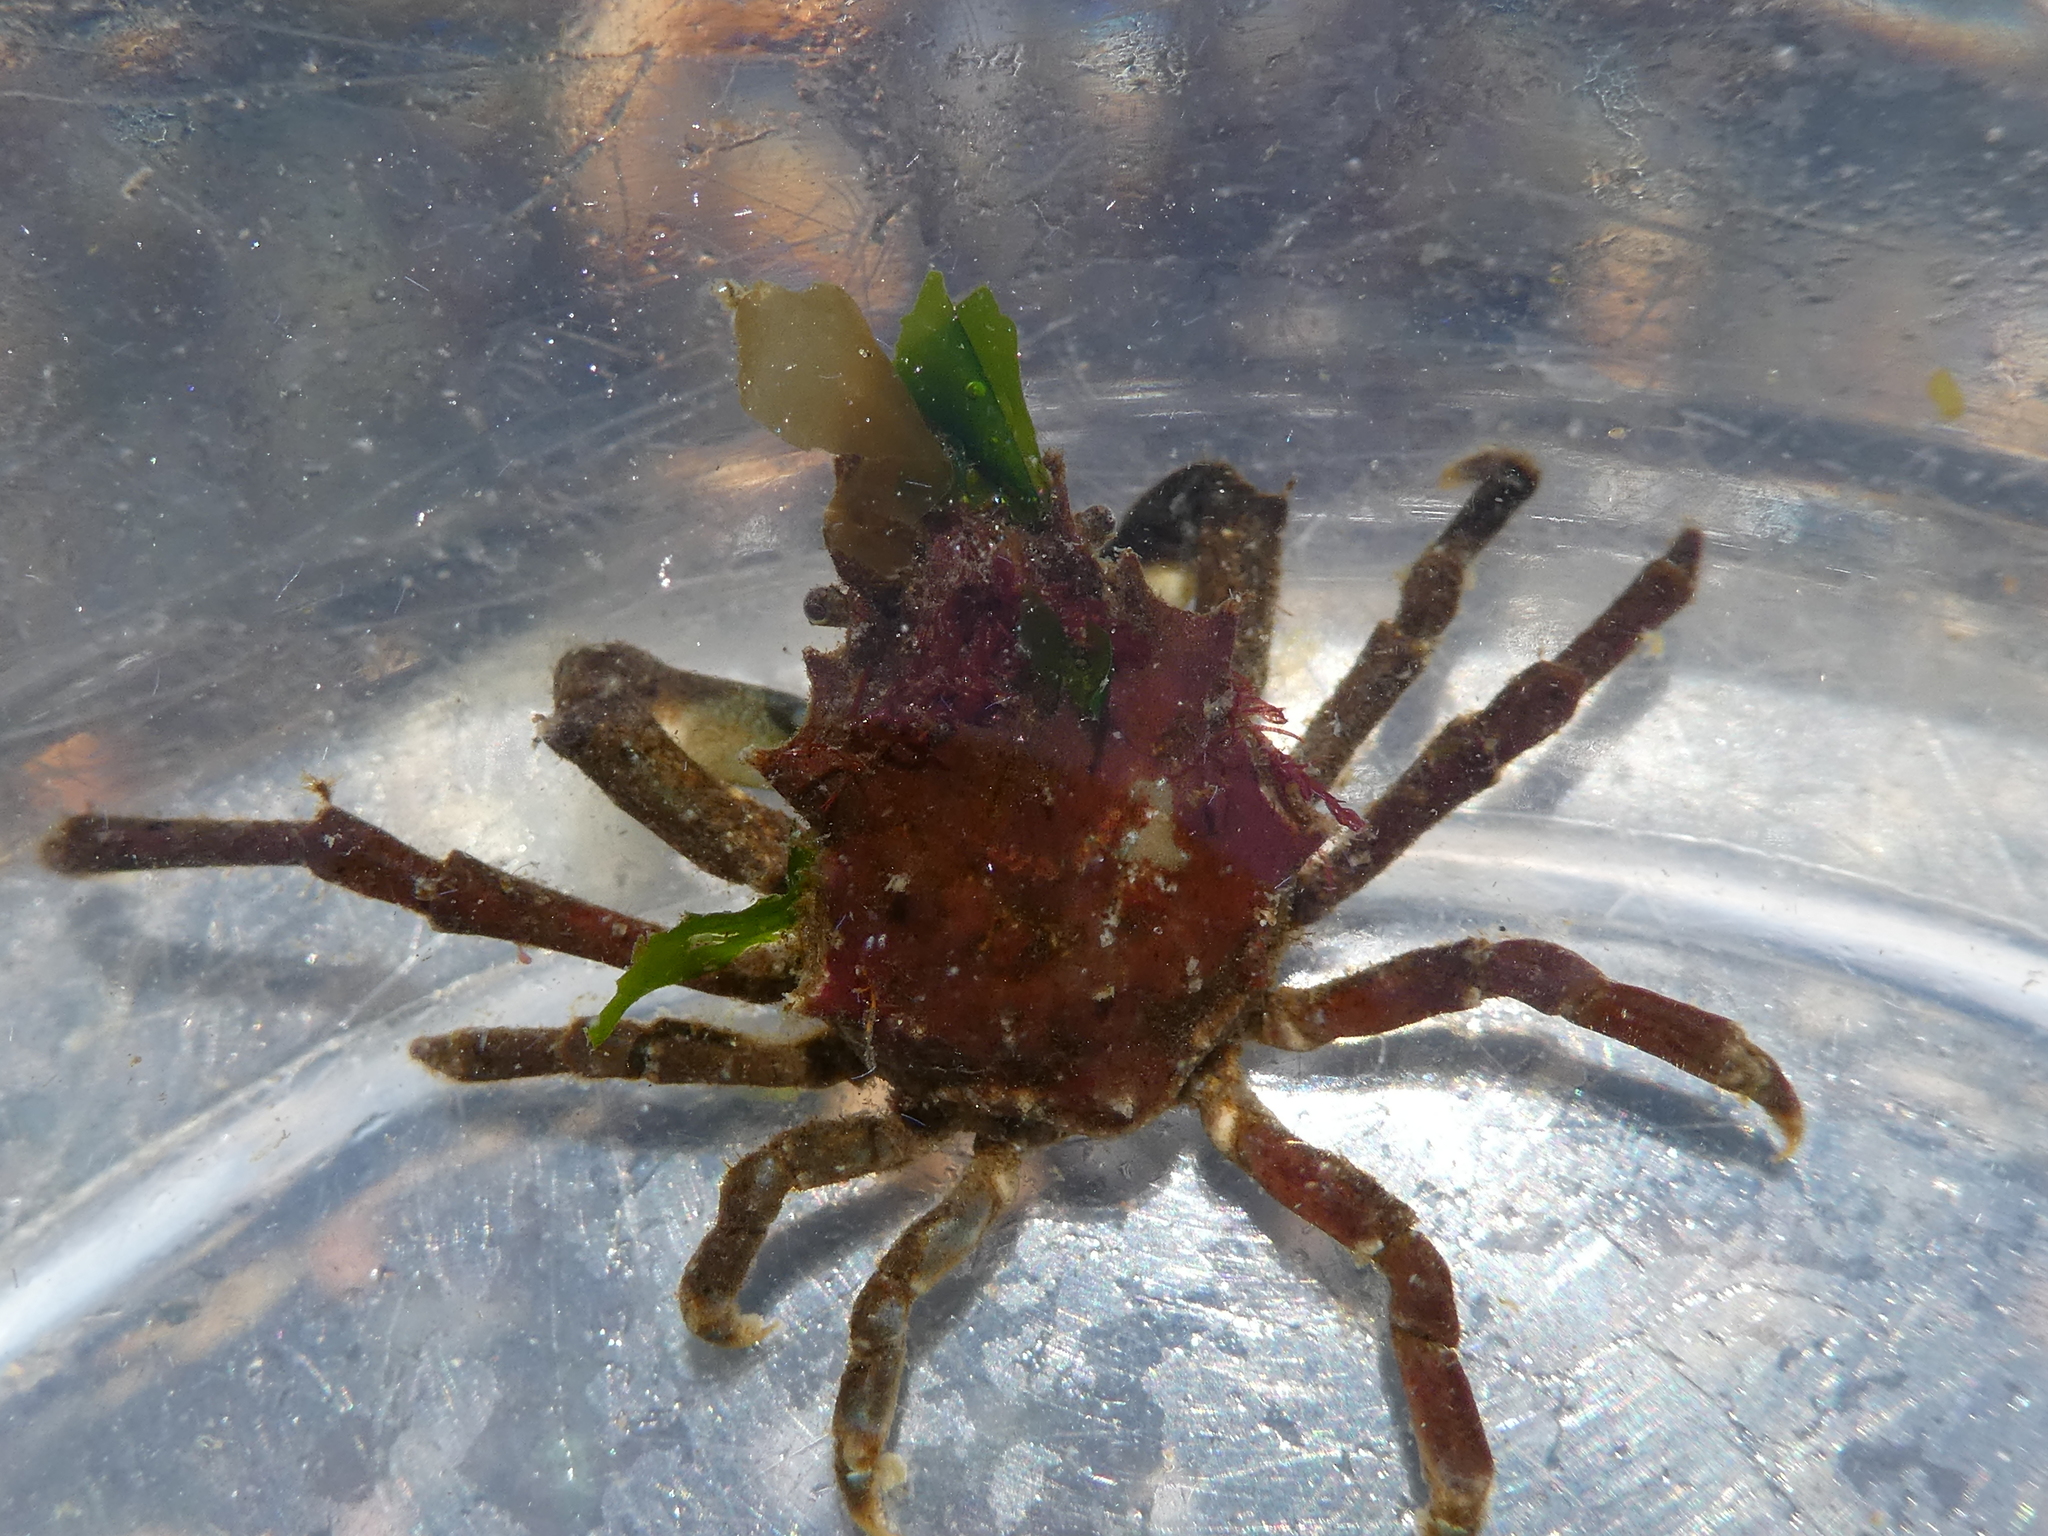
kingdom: Animalia
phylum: Arthropoda
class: Malacostraca
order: Decapoda
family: Epialtidae
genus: Pugettia
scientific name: Pugettia gracilis
